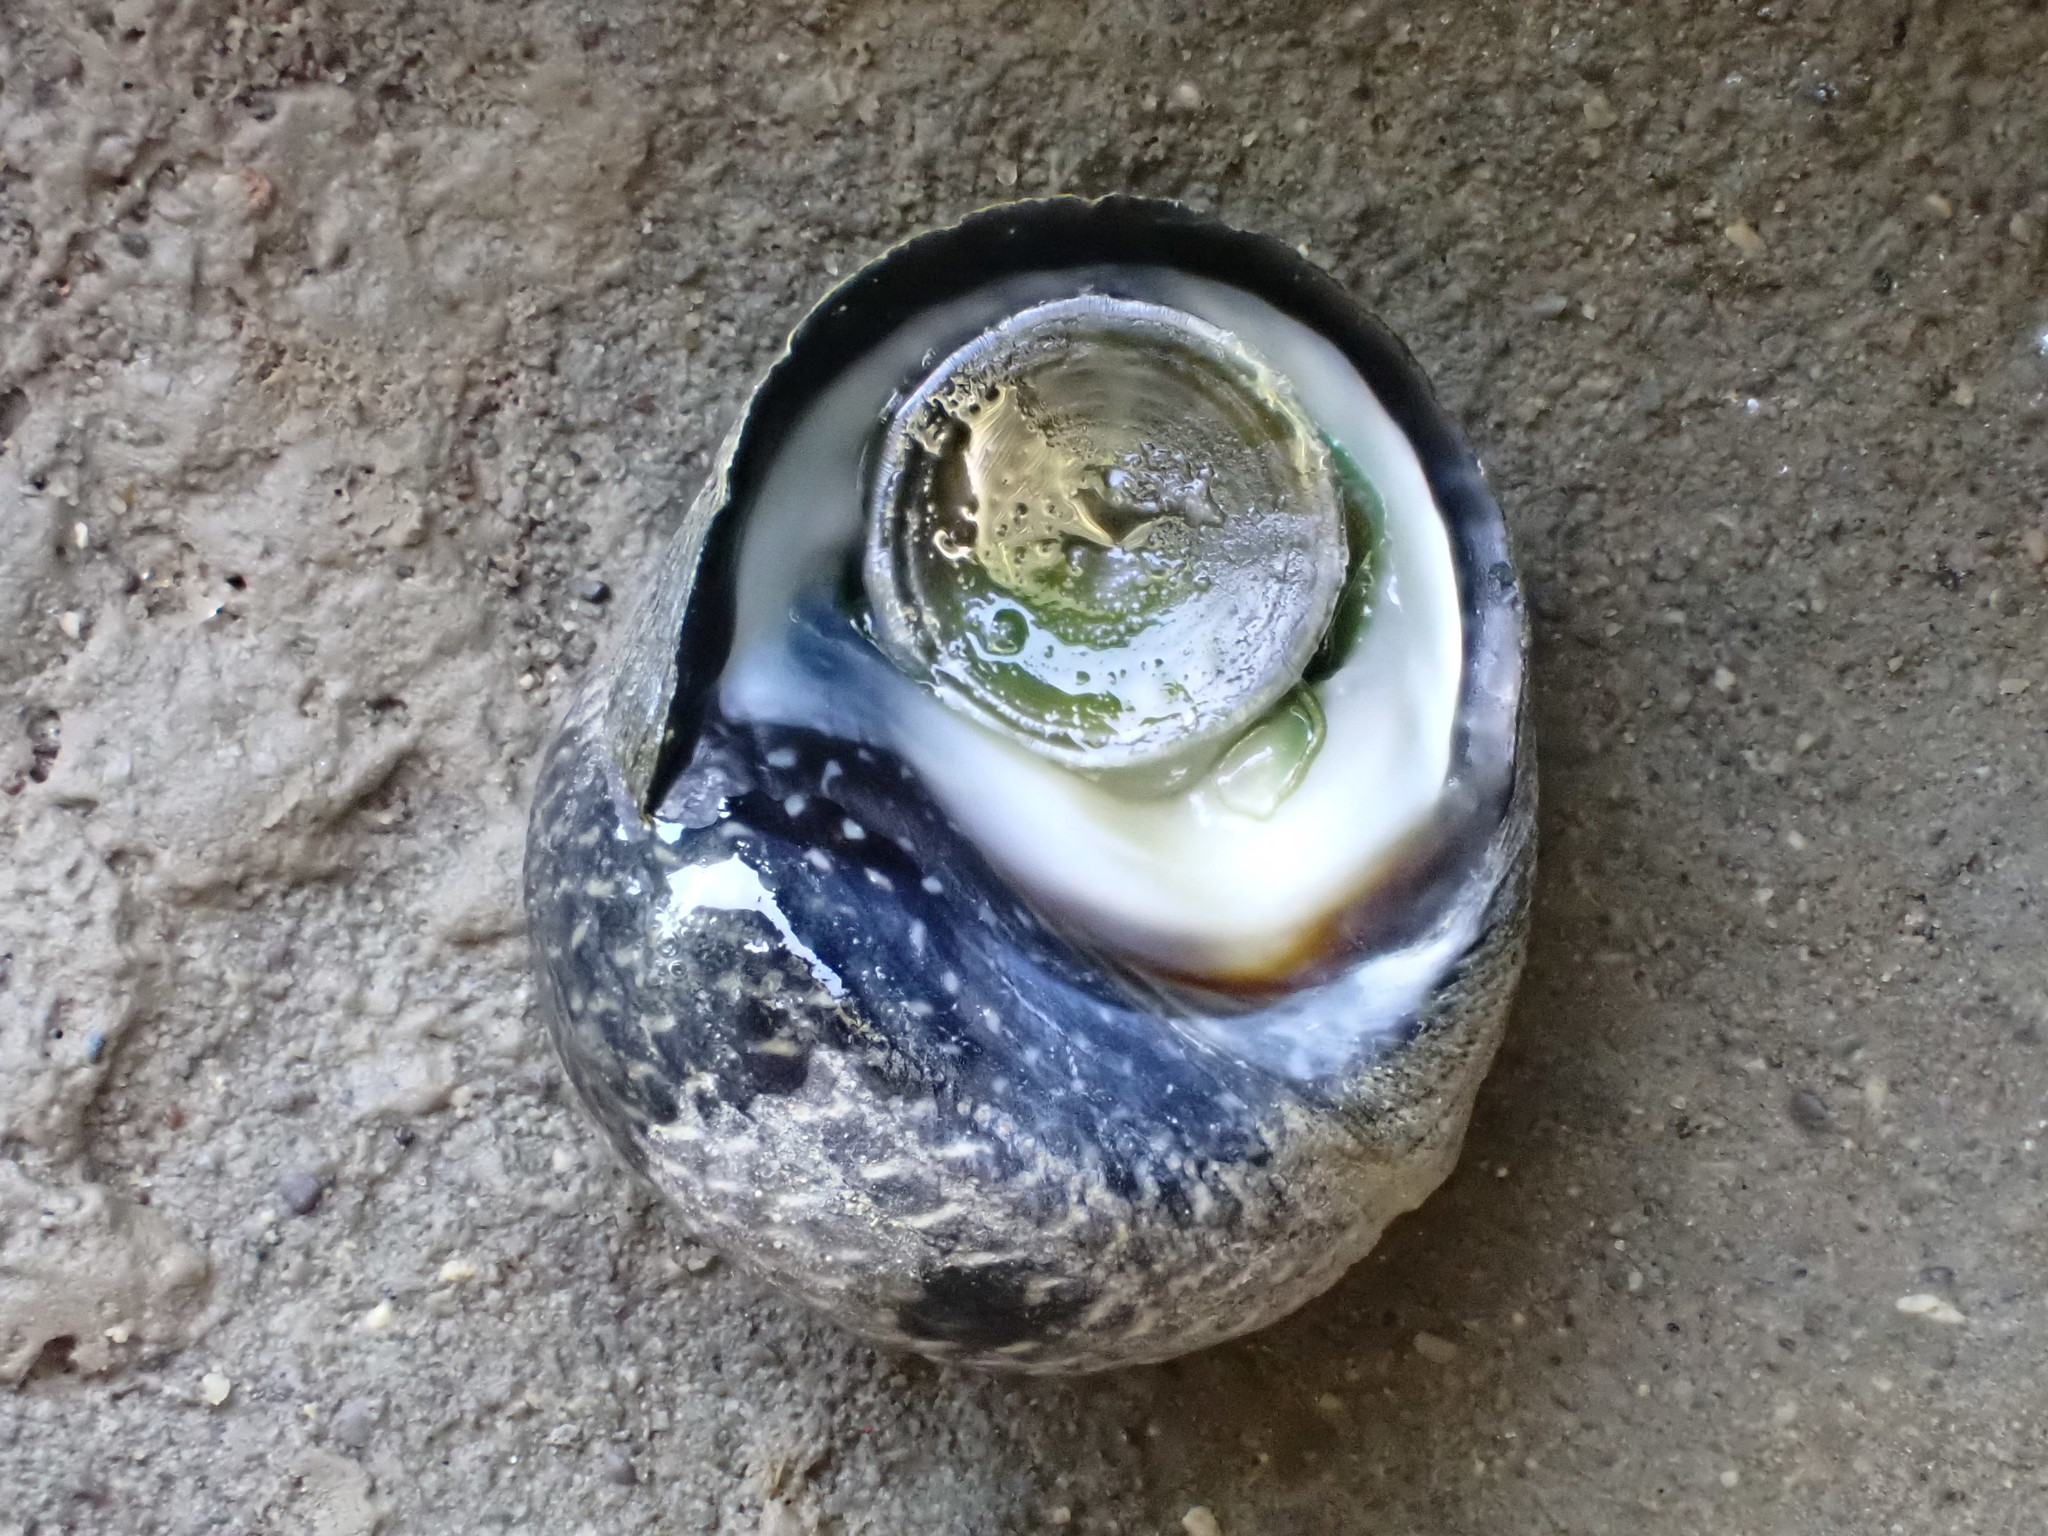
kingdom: Animalia
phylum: Mollusca
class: Gastropoda
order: Trochida
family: Trochidae
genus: Diloma
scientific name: Diloma aethiops
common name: Scorched monodont
